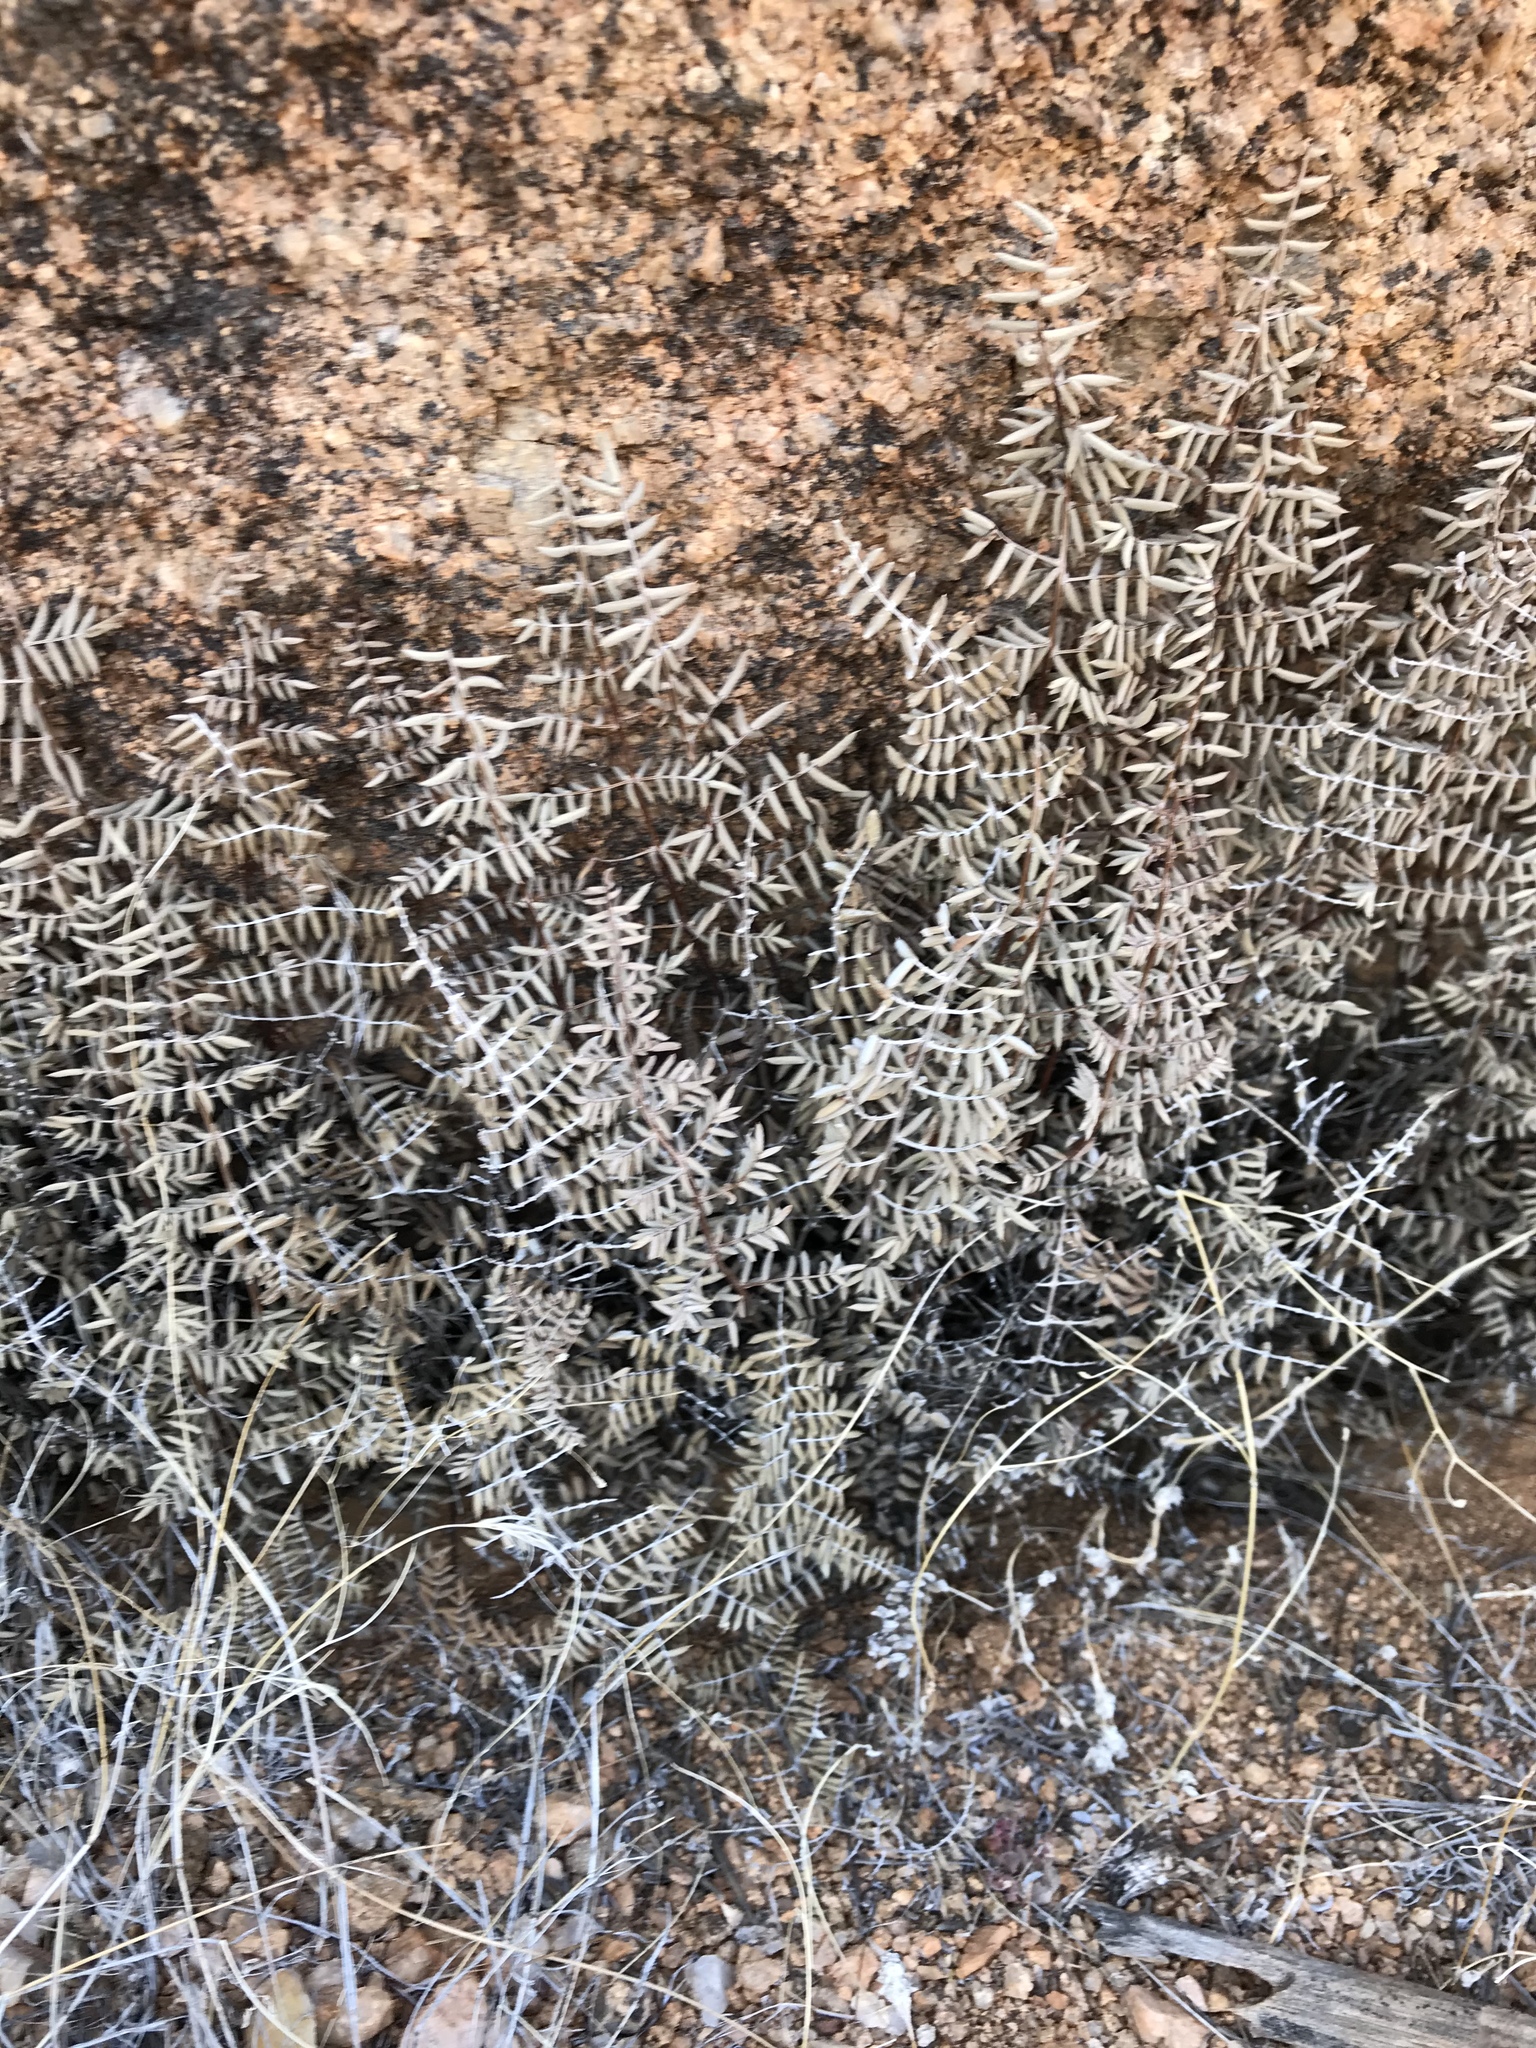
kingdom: Plantae
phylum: Tracheophyta
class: Polypodiopsida
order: Polypodiales
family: Pteridaceae
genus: Pellaea
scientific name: Pellaea truncata
